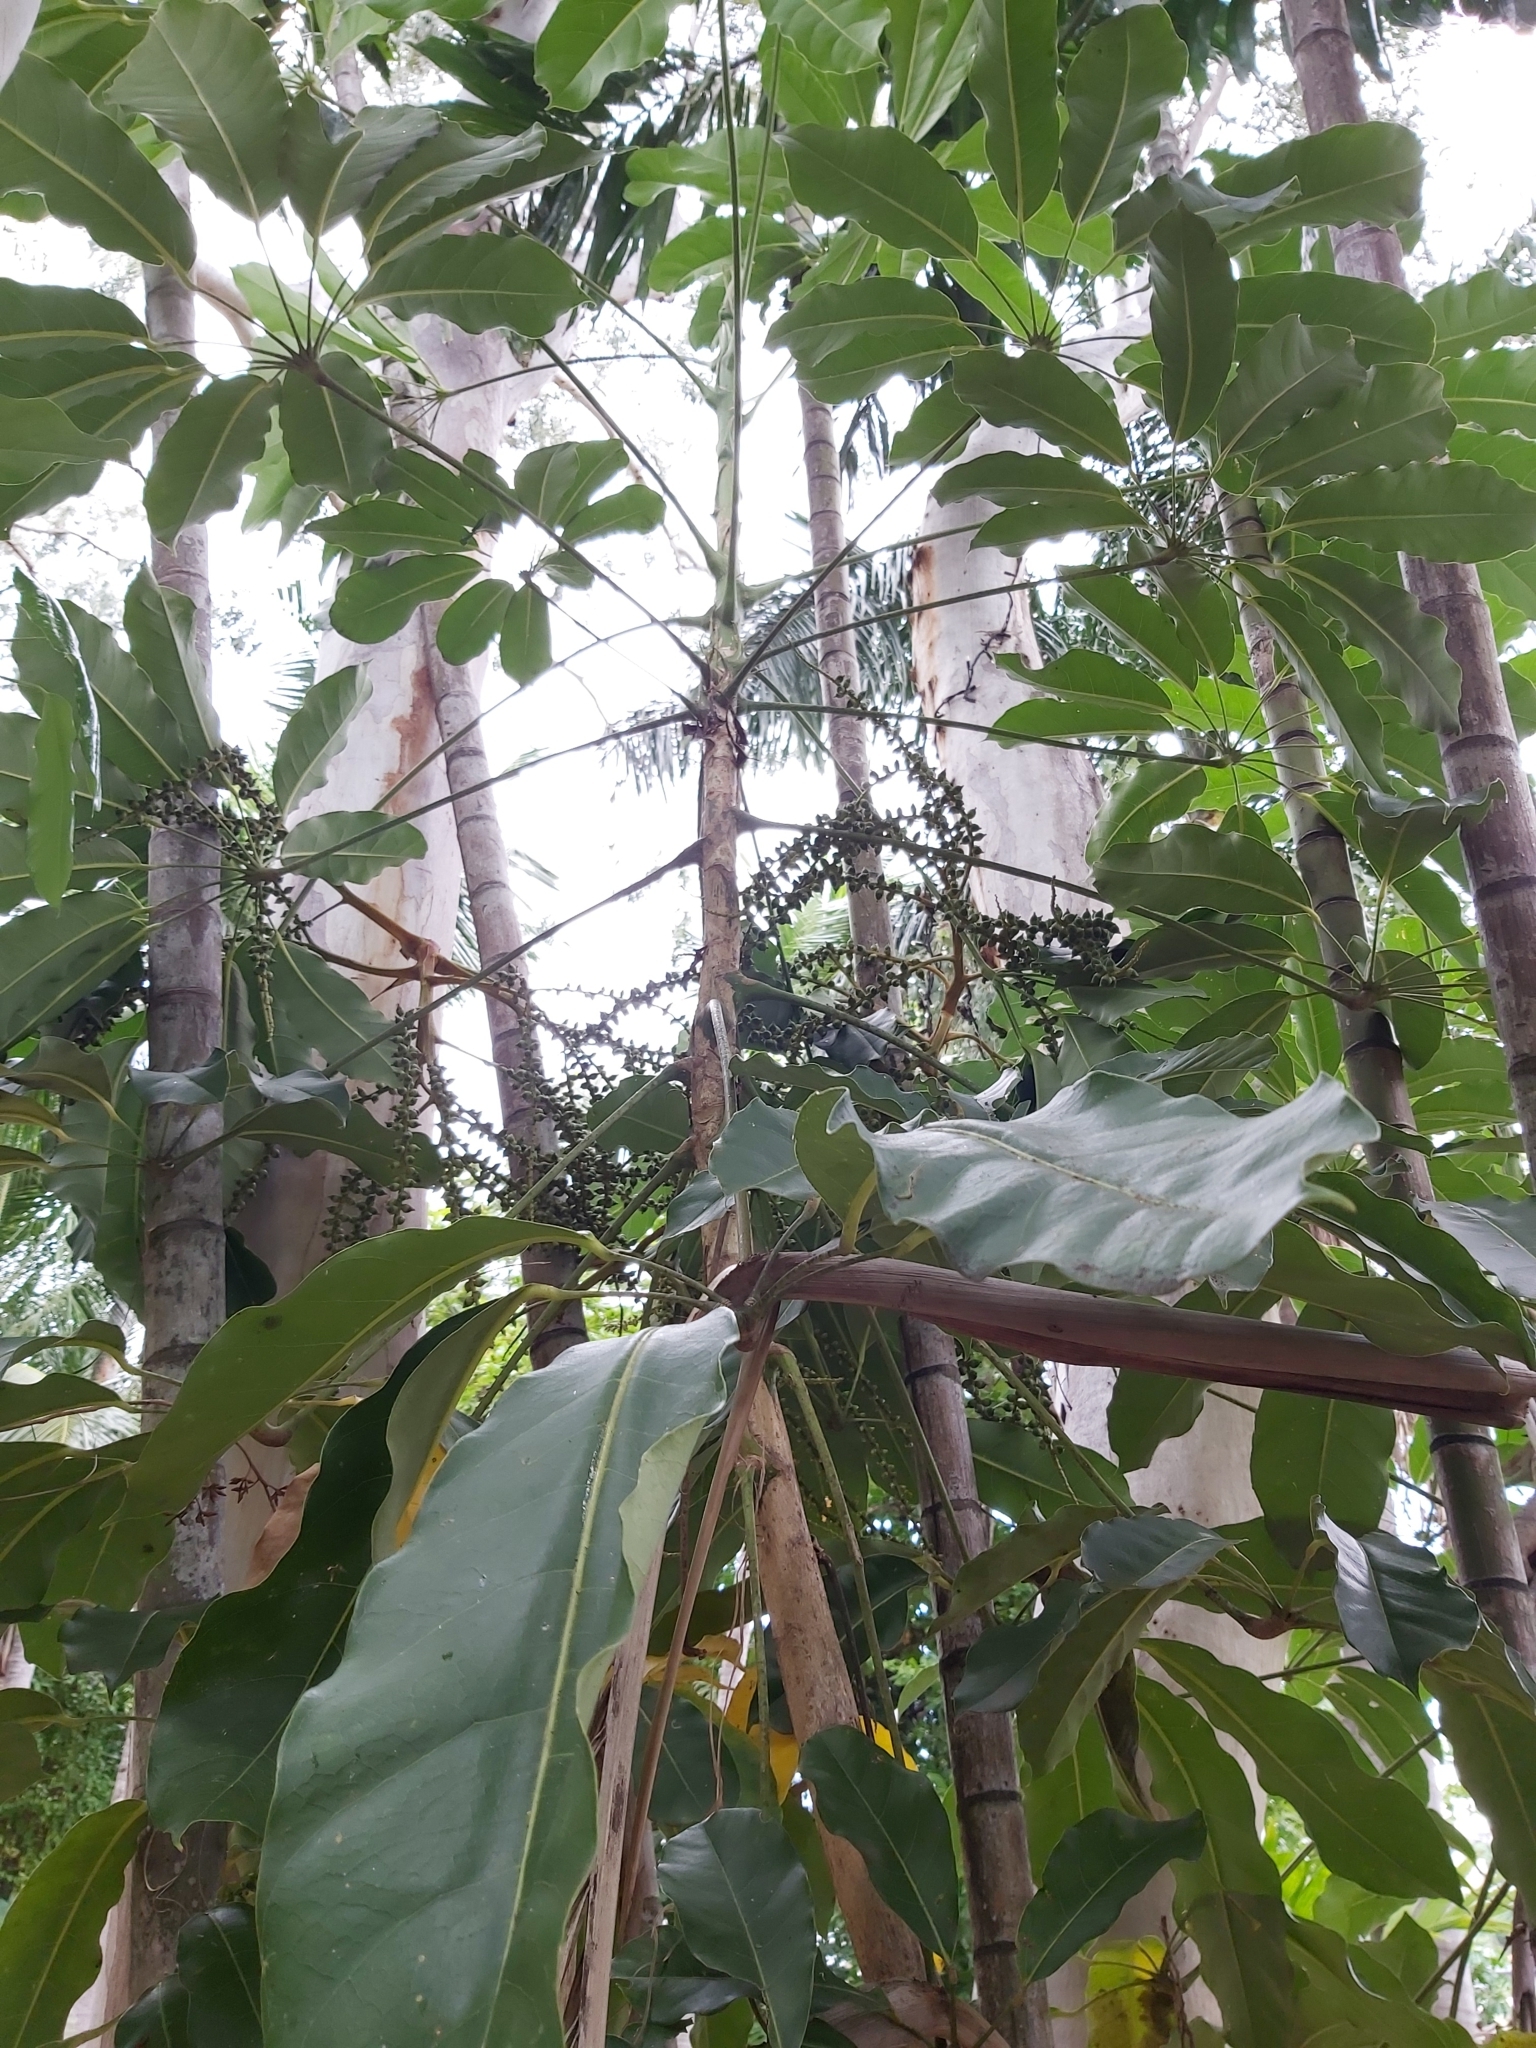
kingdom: Plantae
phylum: Tracheophyta
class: Magnoliopsida
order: Apiales
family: Araliaceae
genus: Heptapleurum
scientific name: Heptapleurum actinophyllum
